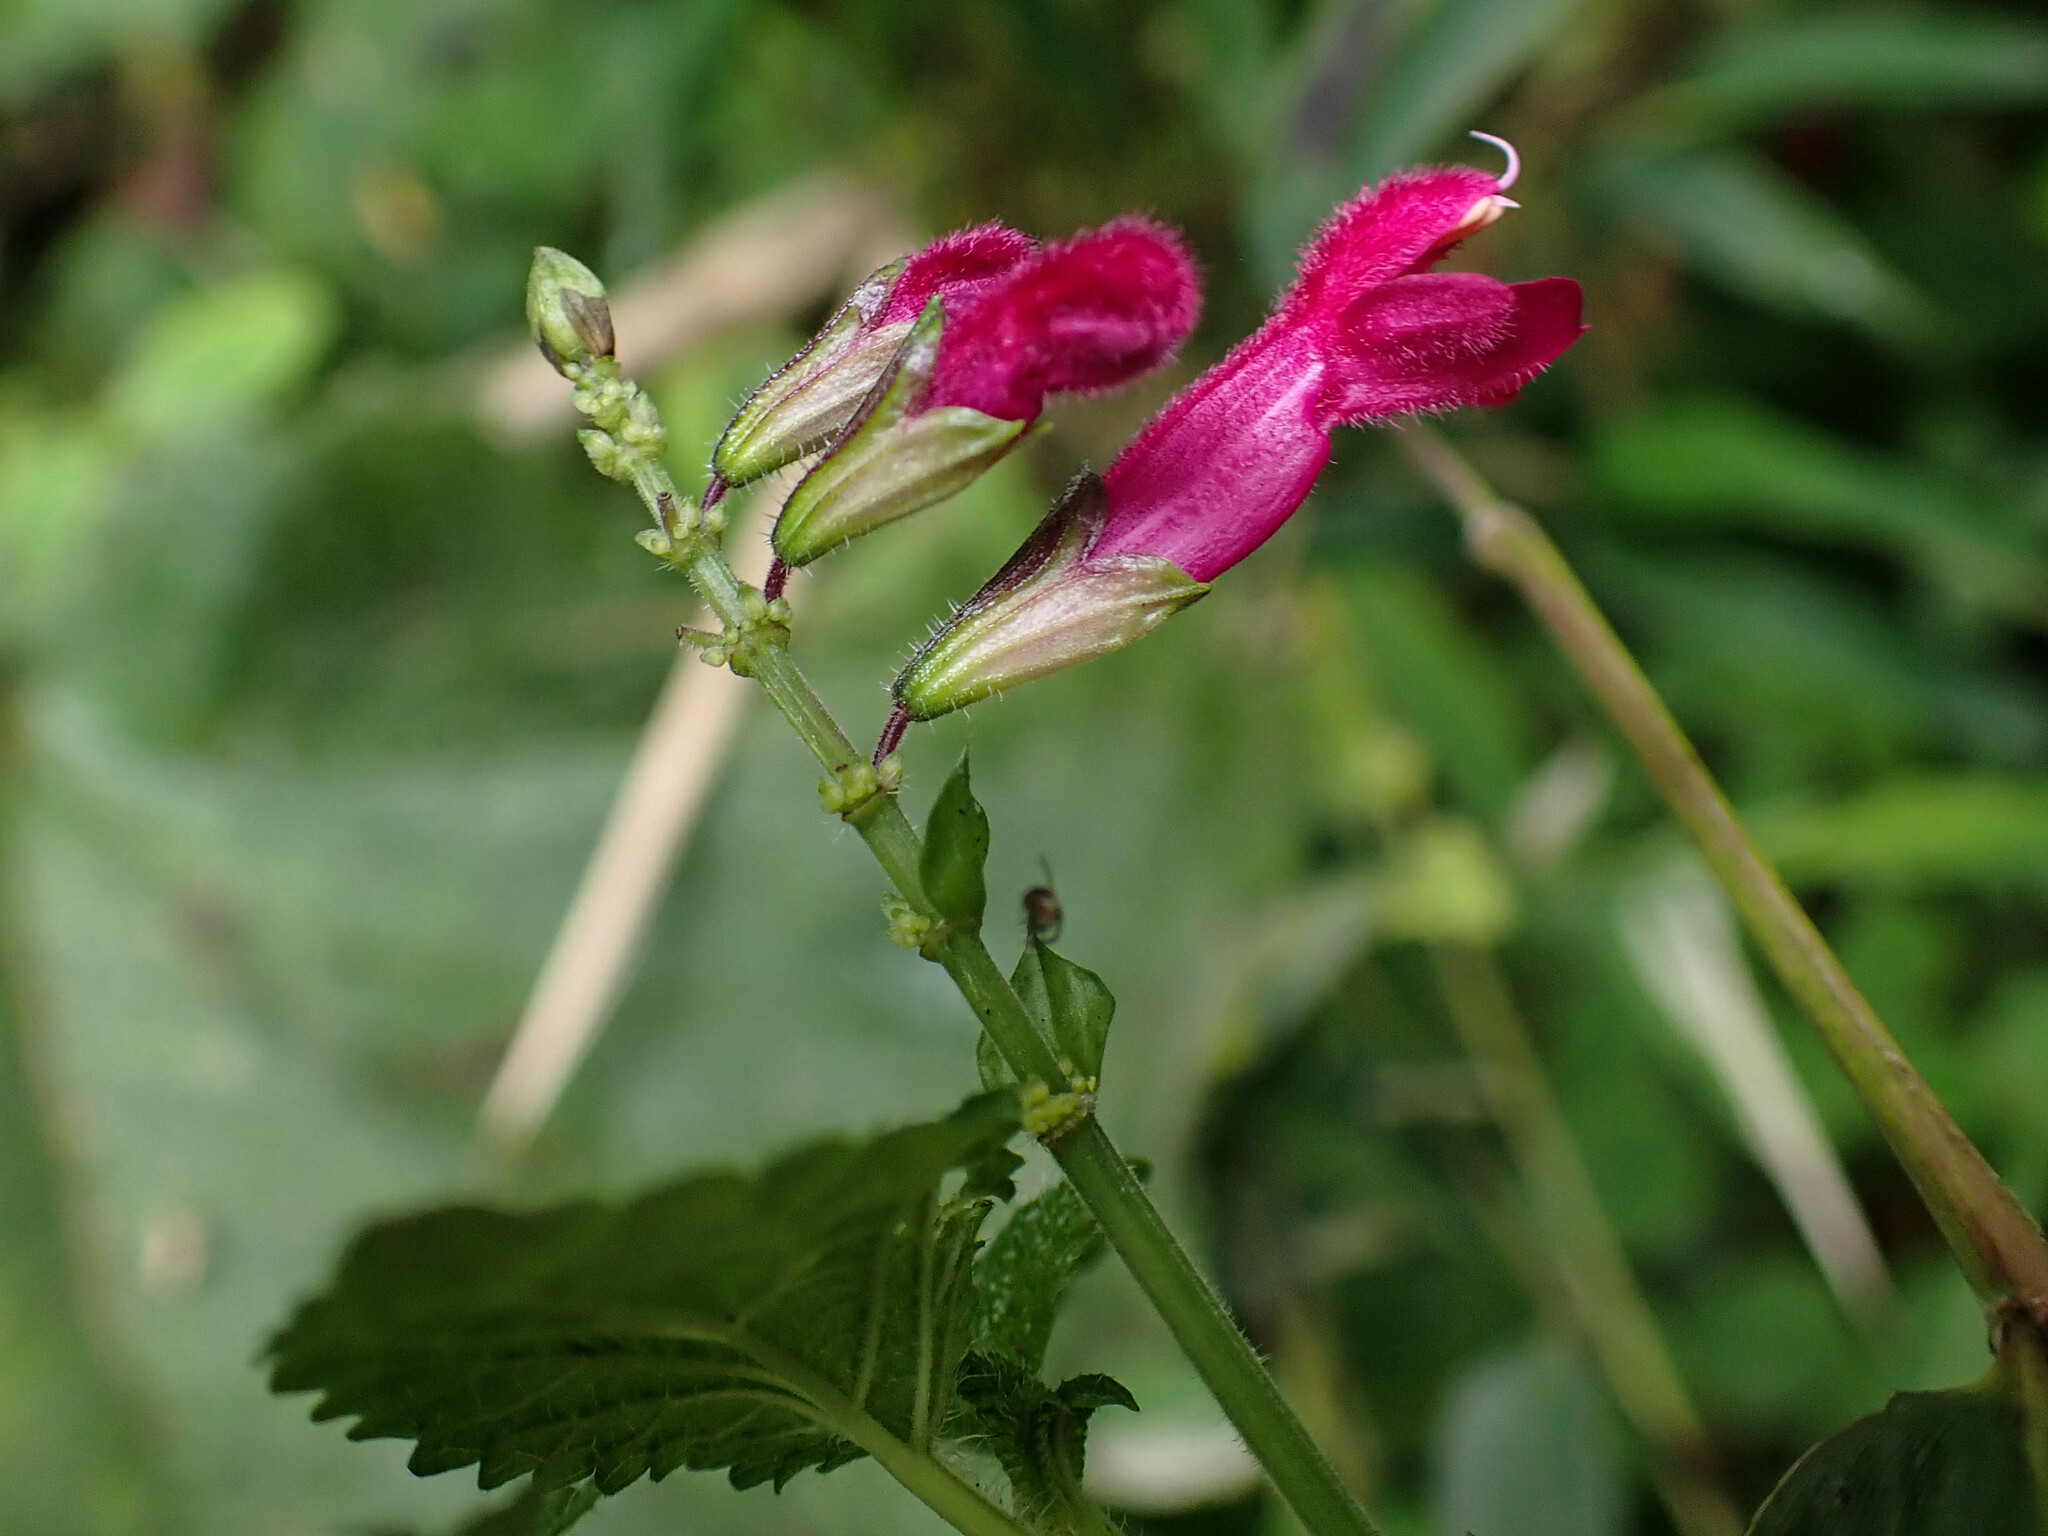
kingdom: Plantae
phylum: Tracheophyta
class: Magnoliopsida
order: Lamiales
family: Lamiaceae
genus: Salvia
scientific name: Salvia carnea
